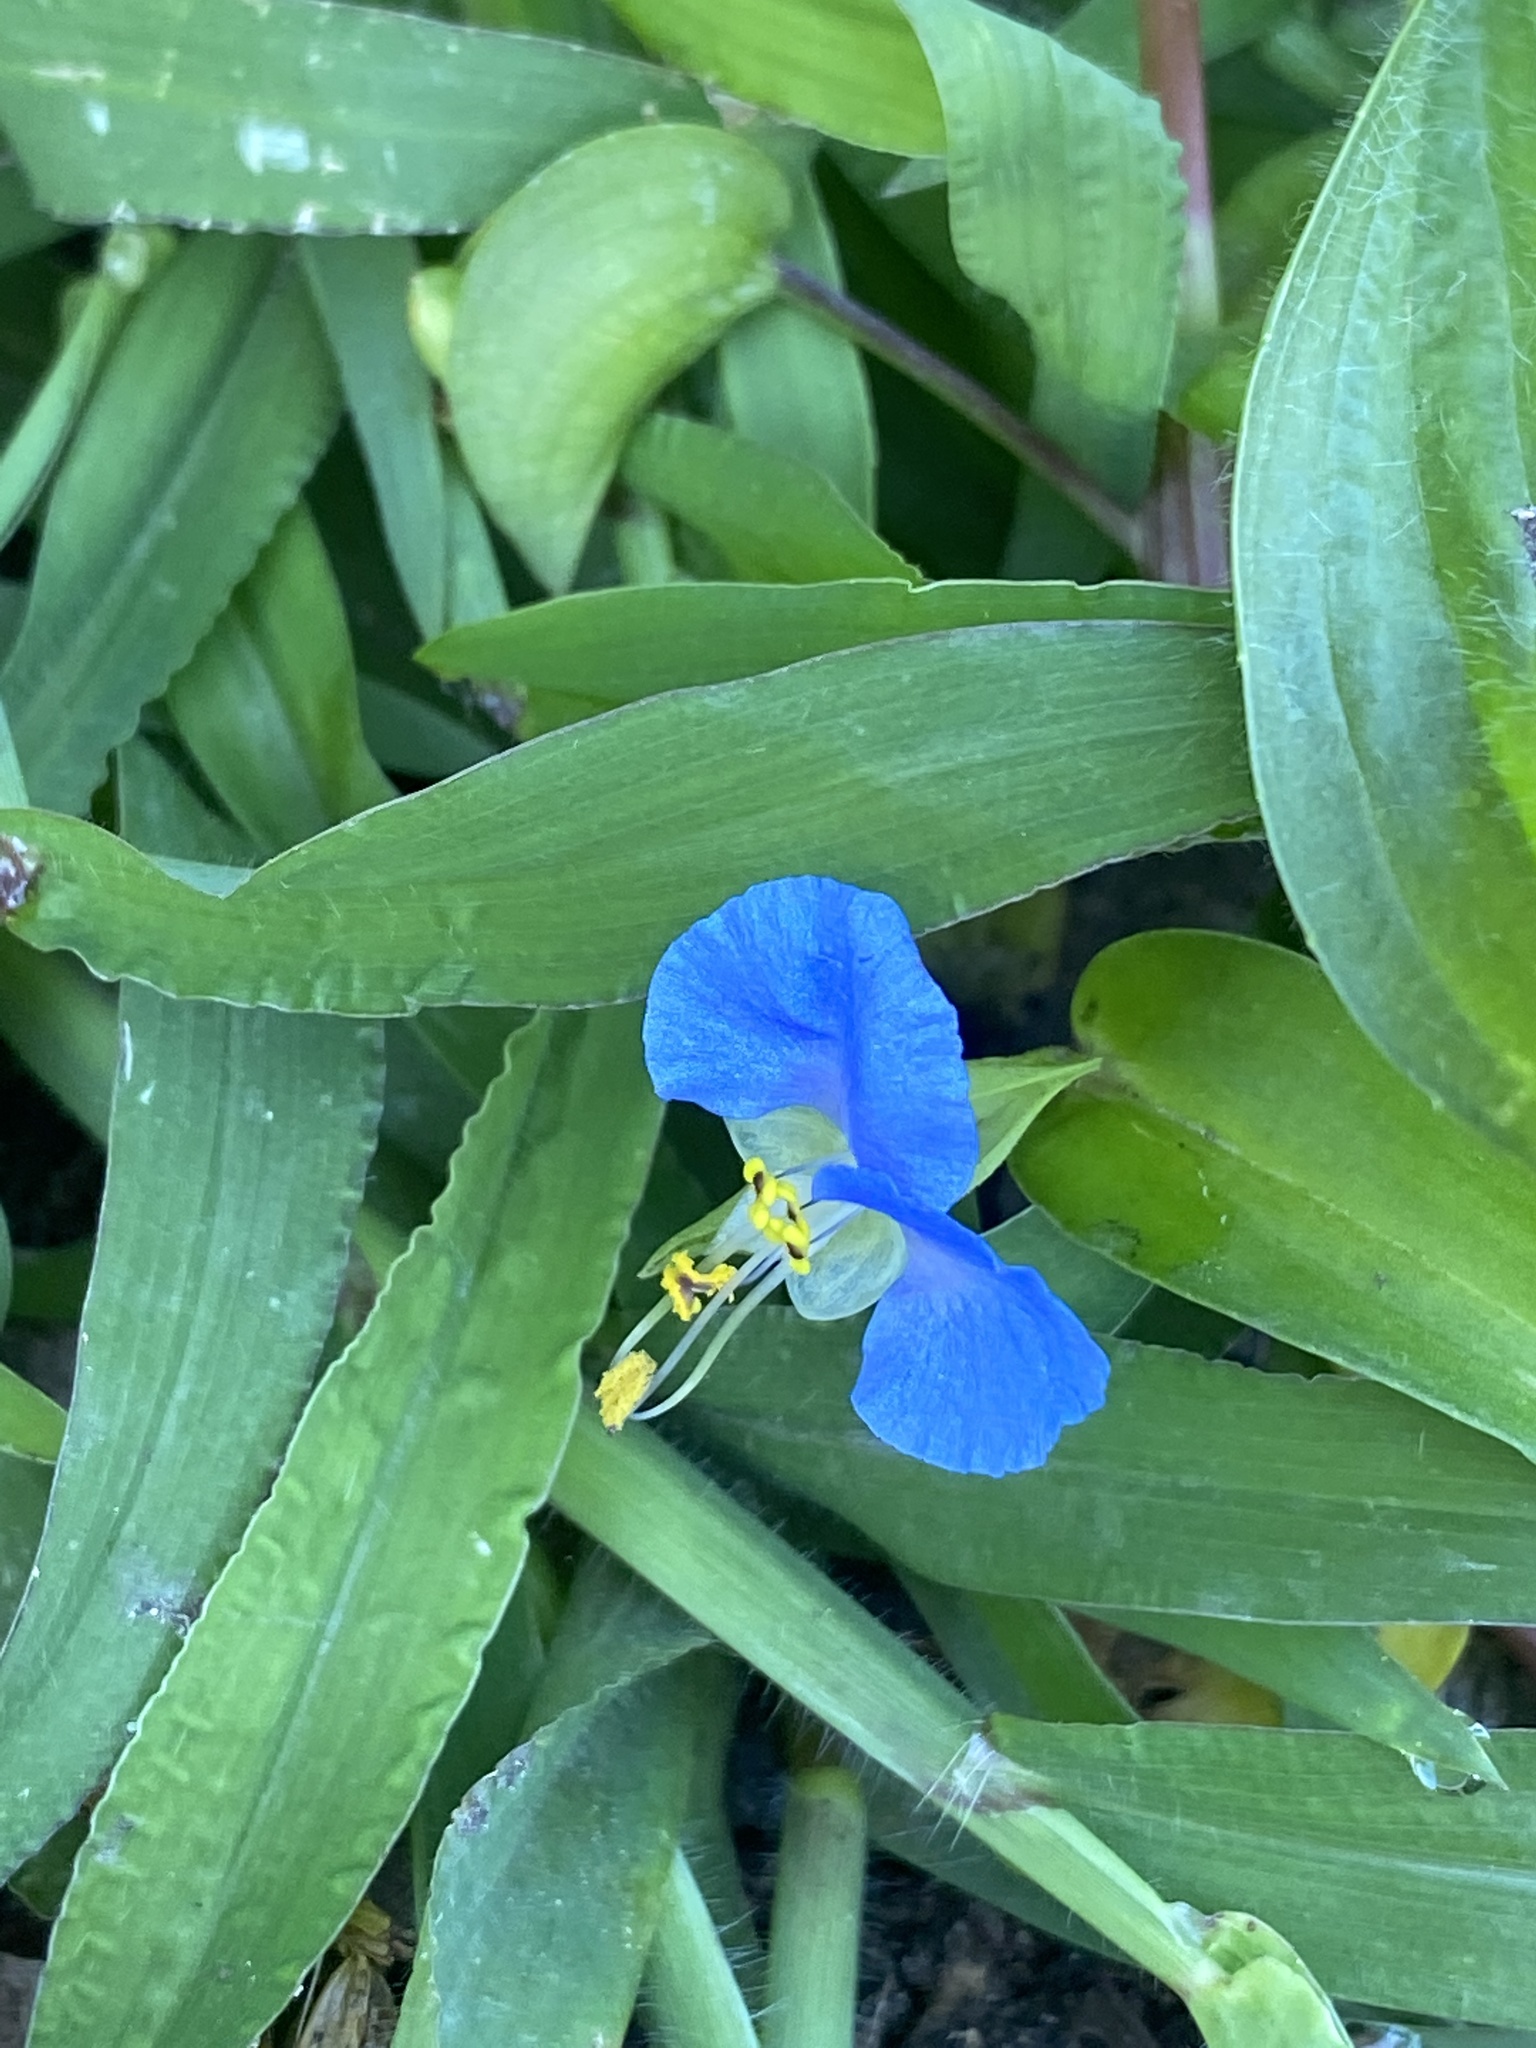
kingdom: Plantae
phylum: Tracheophyta
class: Liliopsida
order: Commelinales
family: Commelinaceae
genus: Commelina
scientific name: Commelina communis
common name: Asiatic dayflower
